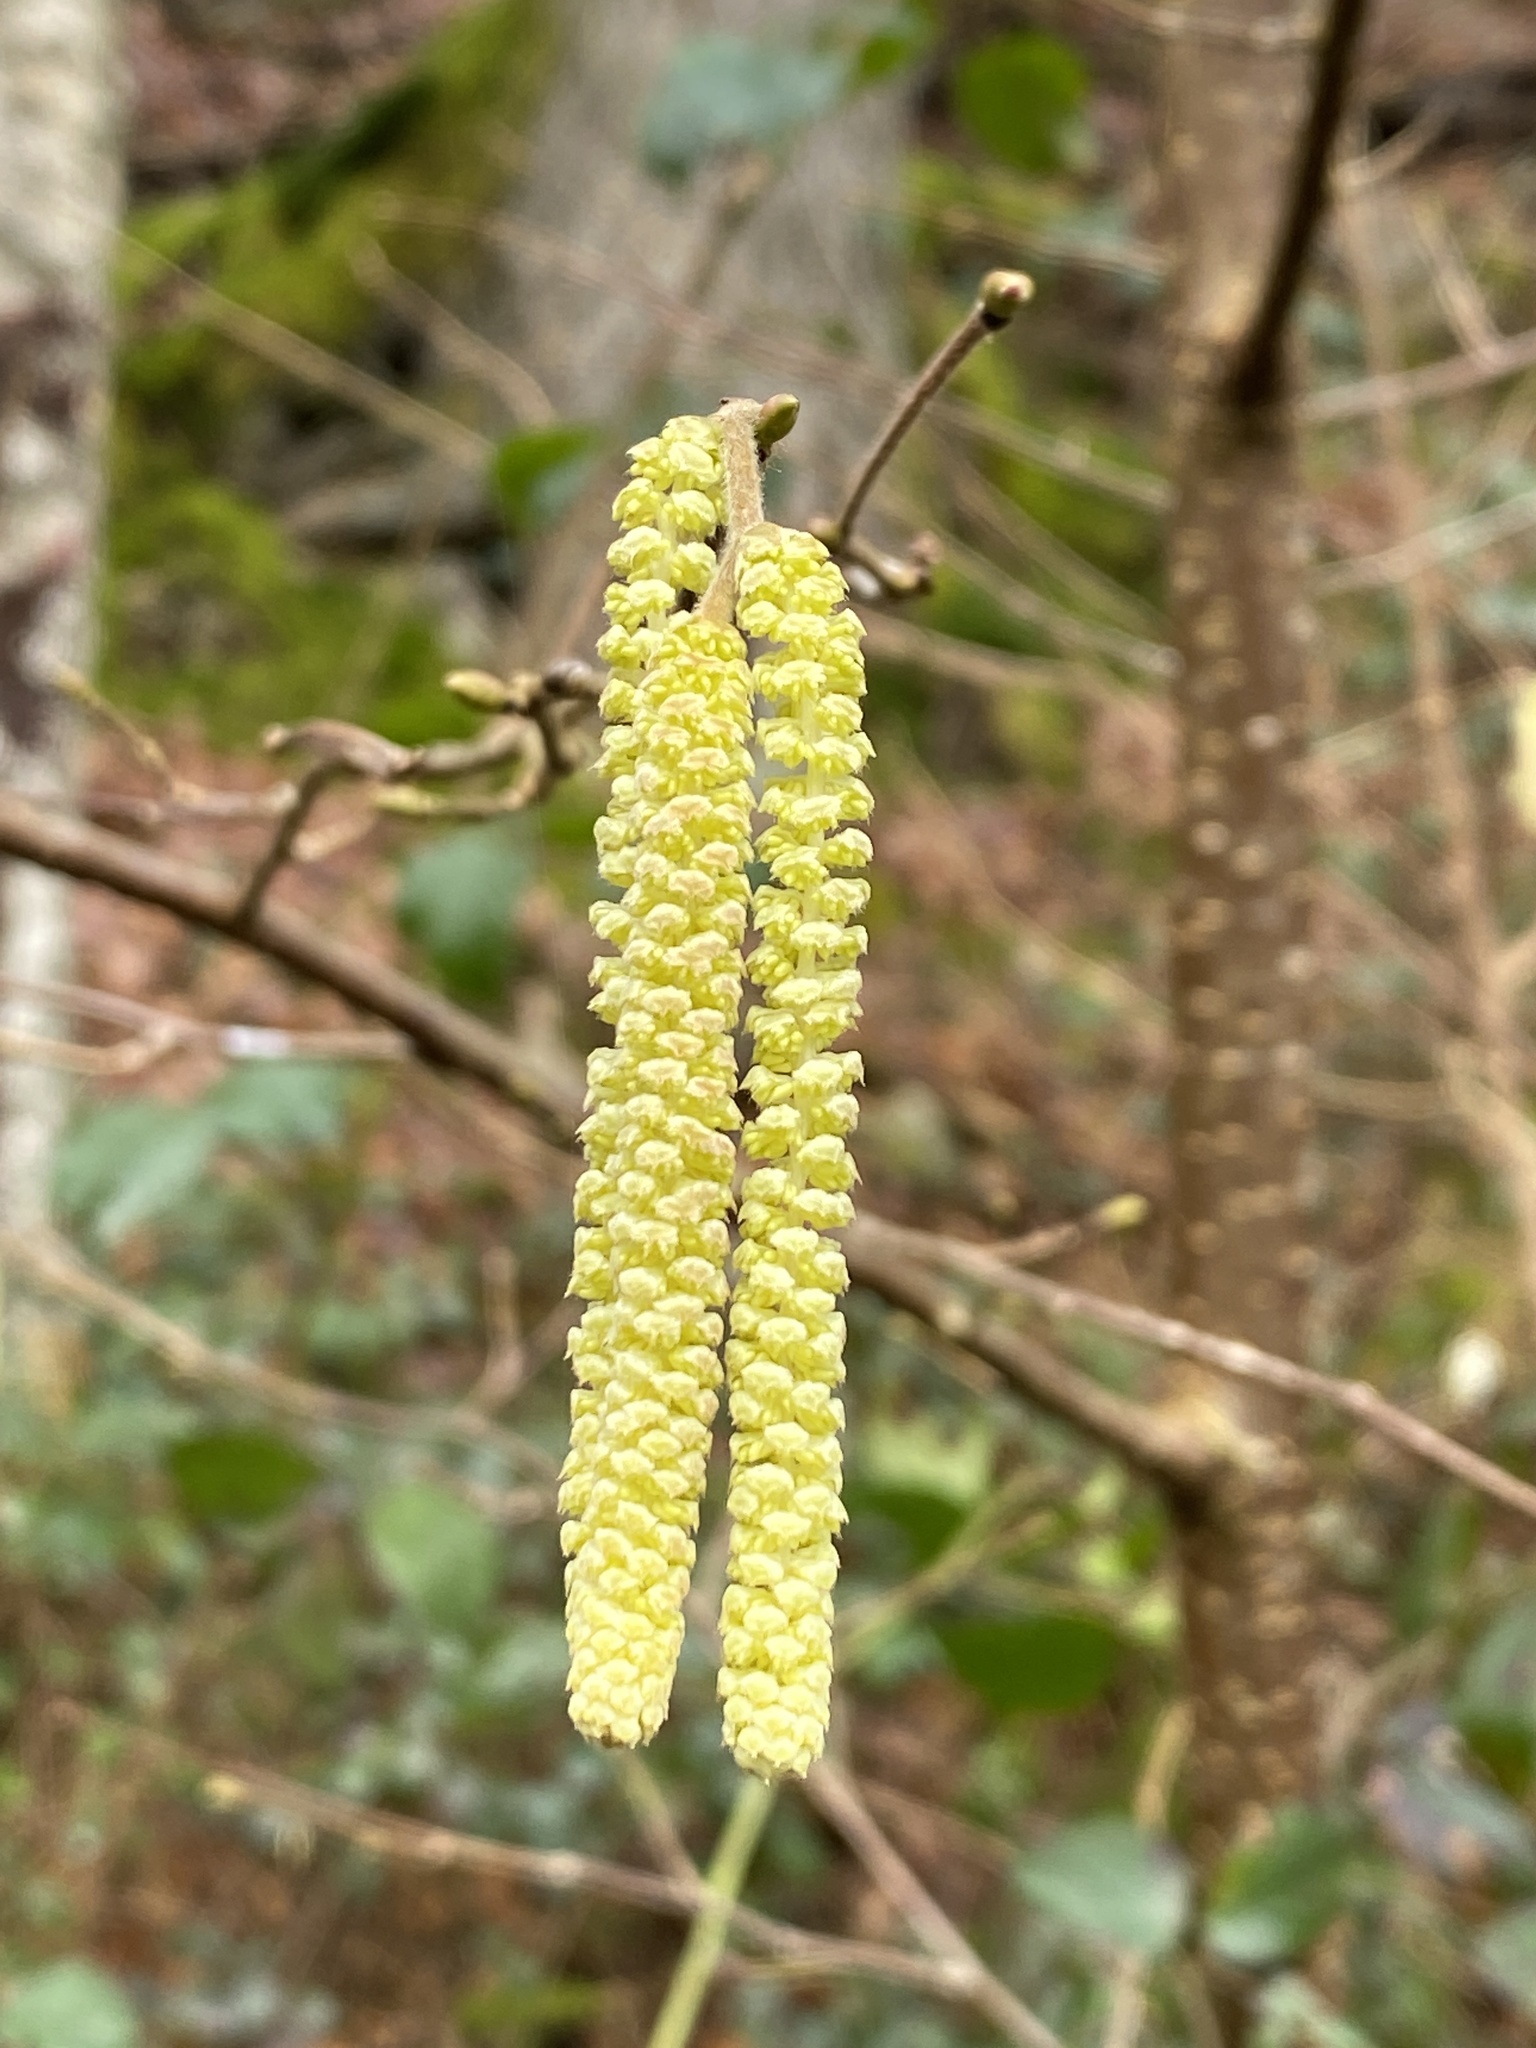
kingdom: Plantae
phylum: Tracheophyta
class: Magnoliopsida
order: Fagales
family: Betulaceae
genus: Corylus
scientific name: Corylus avellana
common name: European hazel
